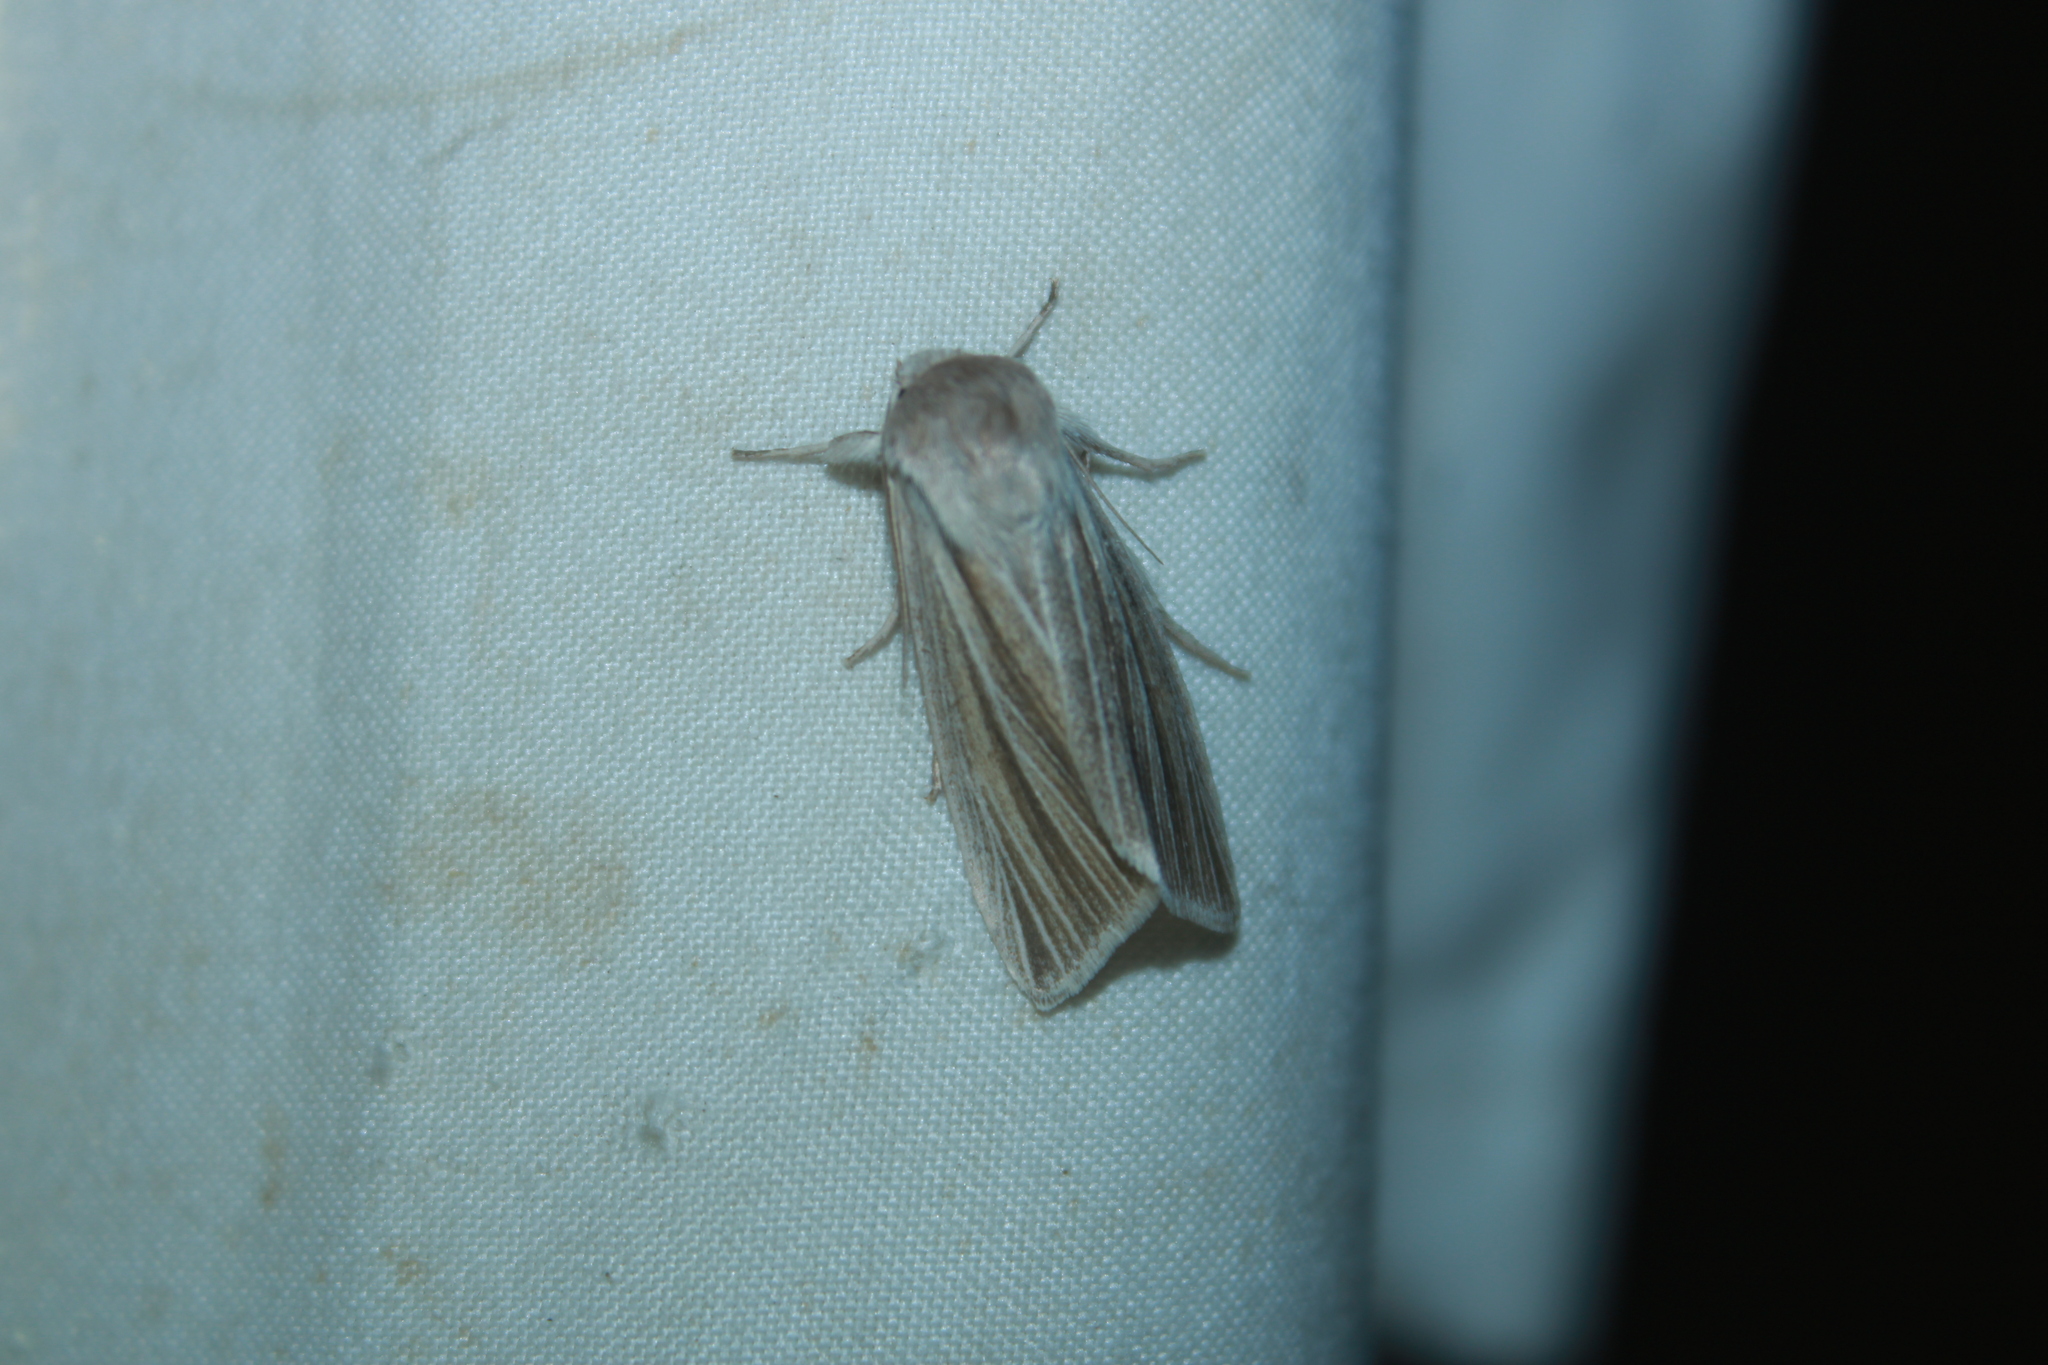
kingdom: Animalia
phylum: Arthropoda
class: Insecta
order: Lepidoptera
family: Noctuidae
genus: Acronicta
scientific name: Acronicta insularis
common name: Henry's marsh moth
